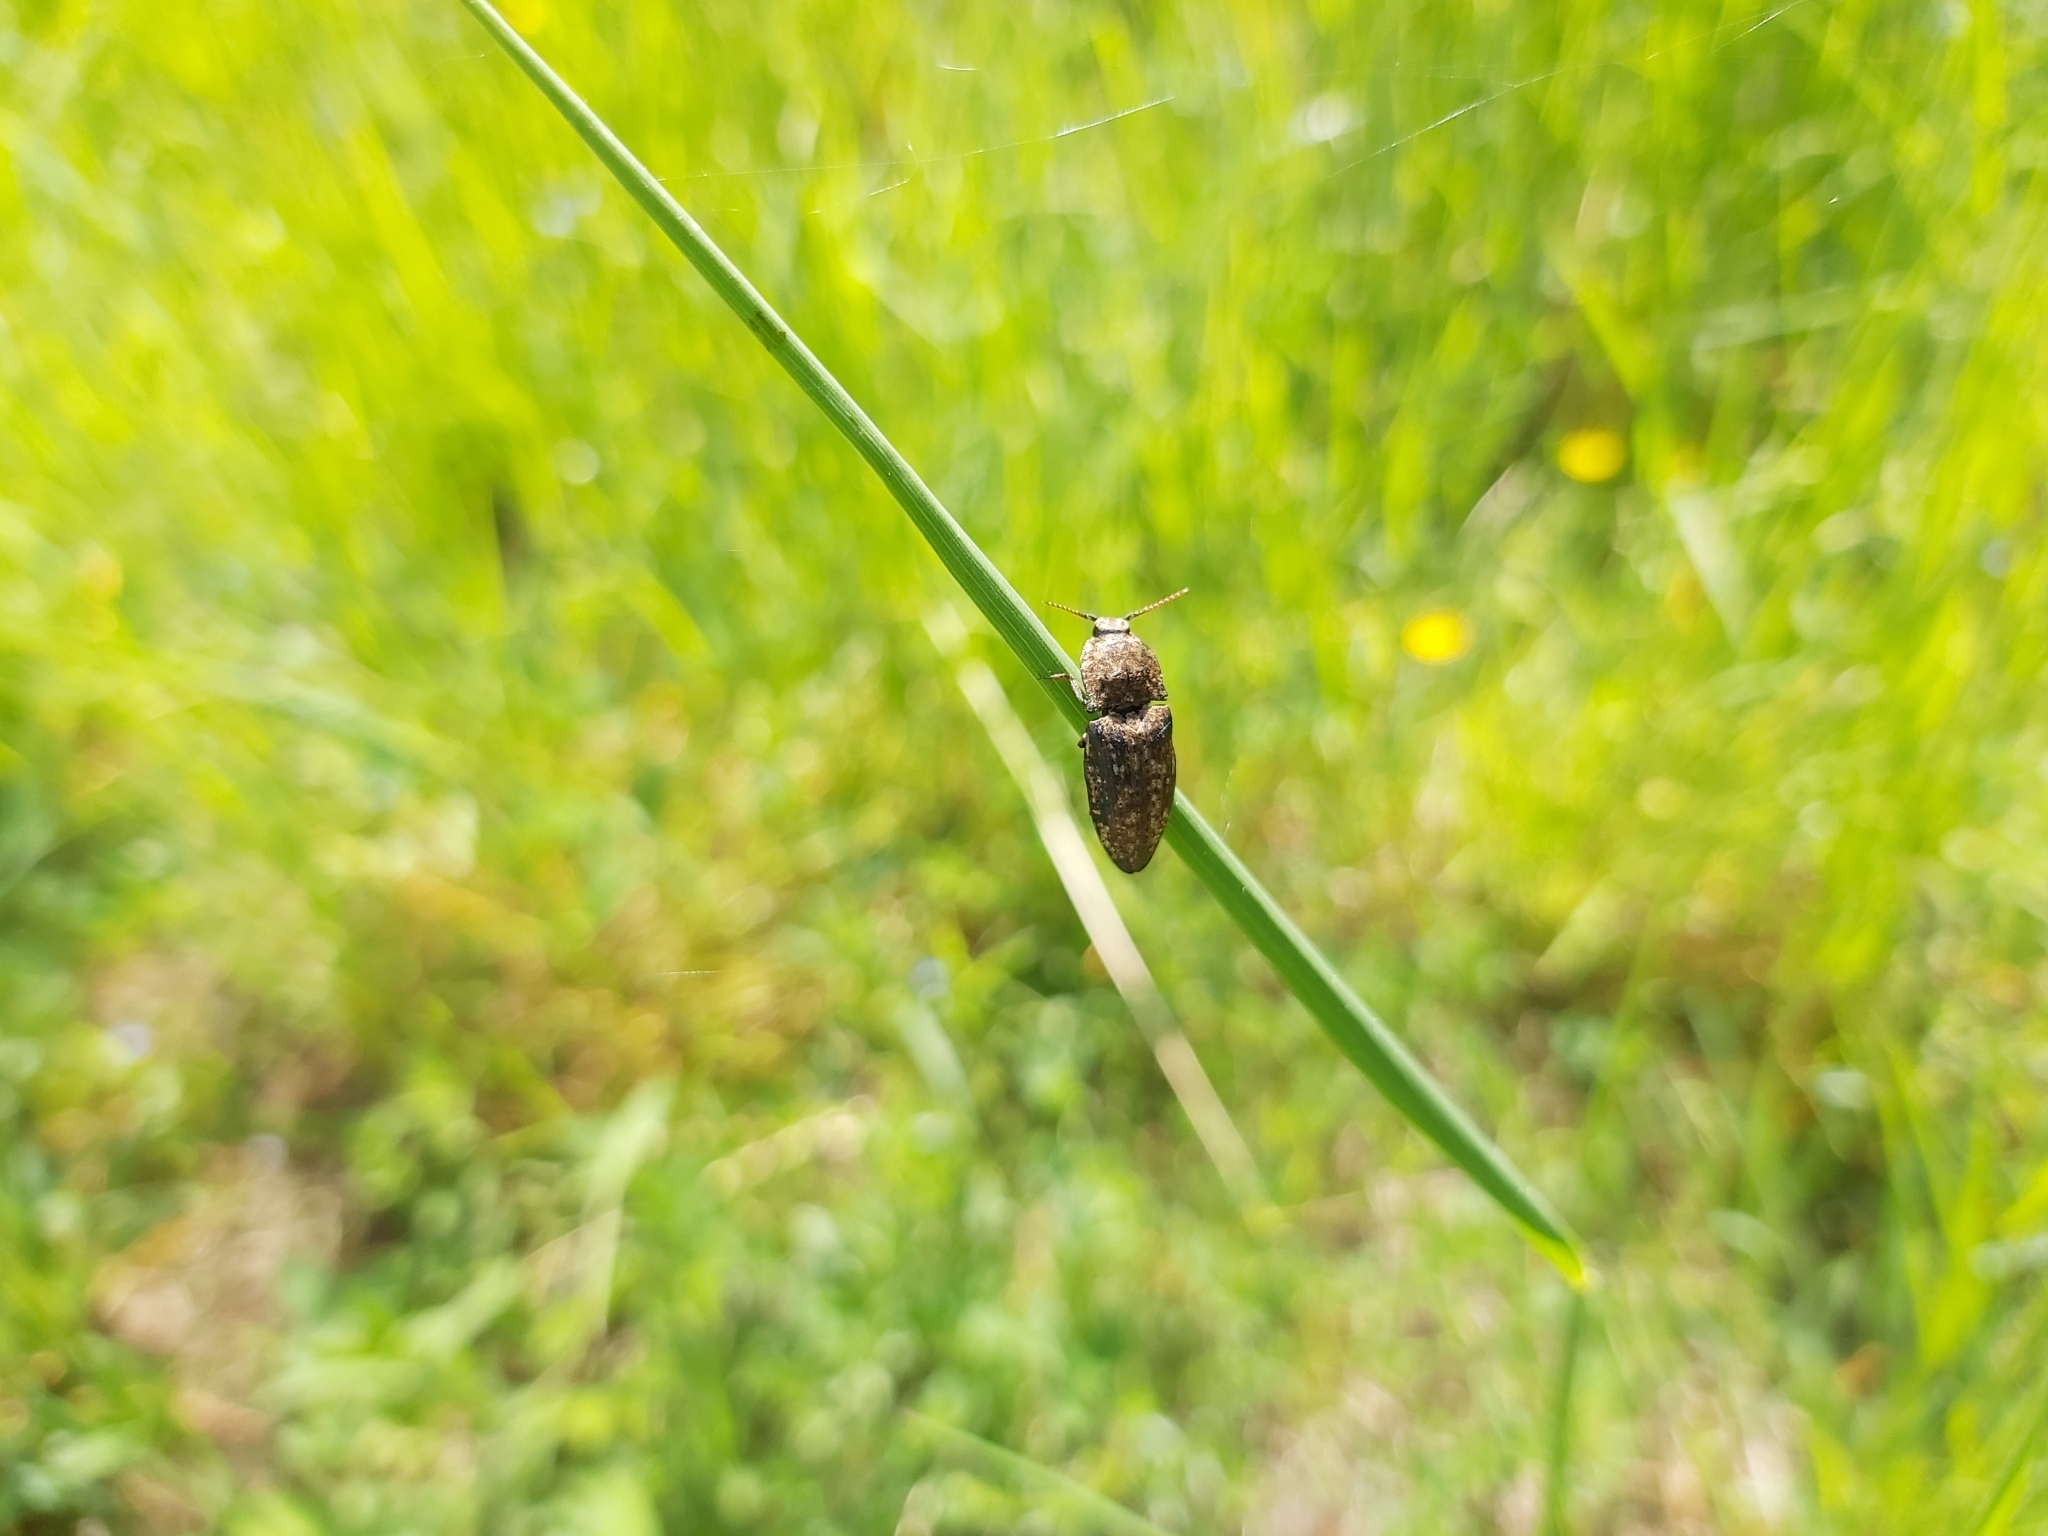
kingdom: Animalia
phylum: Arthropoda
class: Insecta
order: Coleoptera
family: Elateridae
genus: Agrypnus
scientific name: Agrypnus murinus
